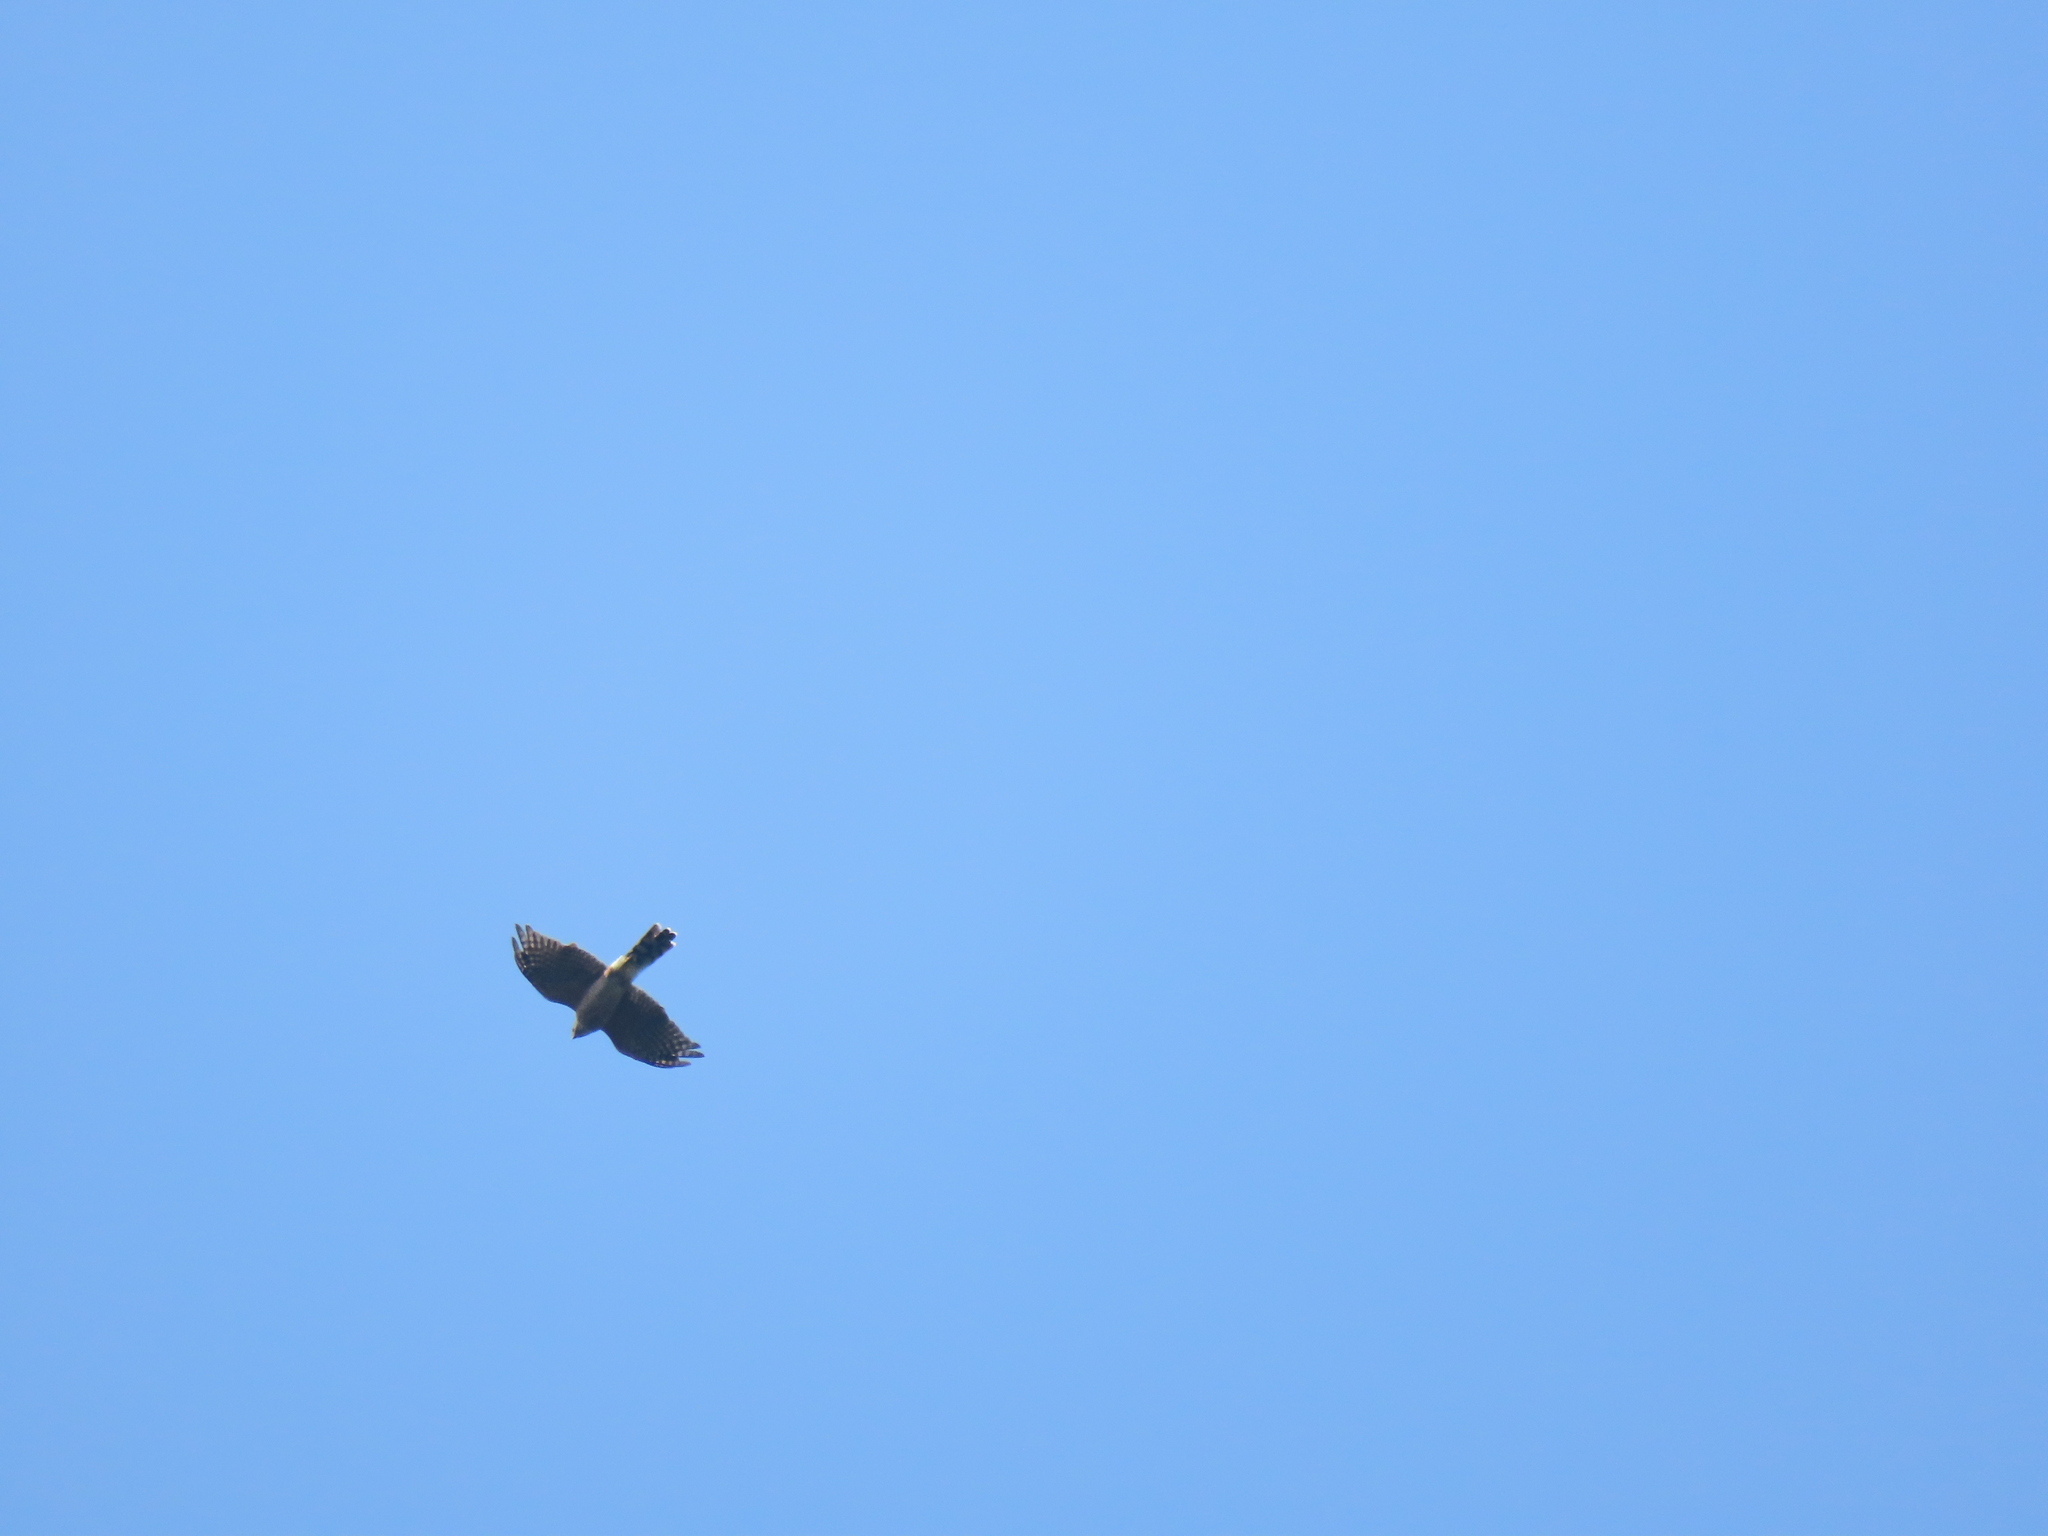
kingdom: Animalia
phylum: Chordata
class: Aves
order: Accipitriformes
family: Accipitridae
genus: Accipiter
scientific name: Accipiter cooperii
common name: Cooper's hawk
